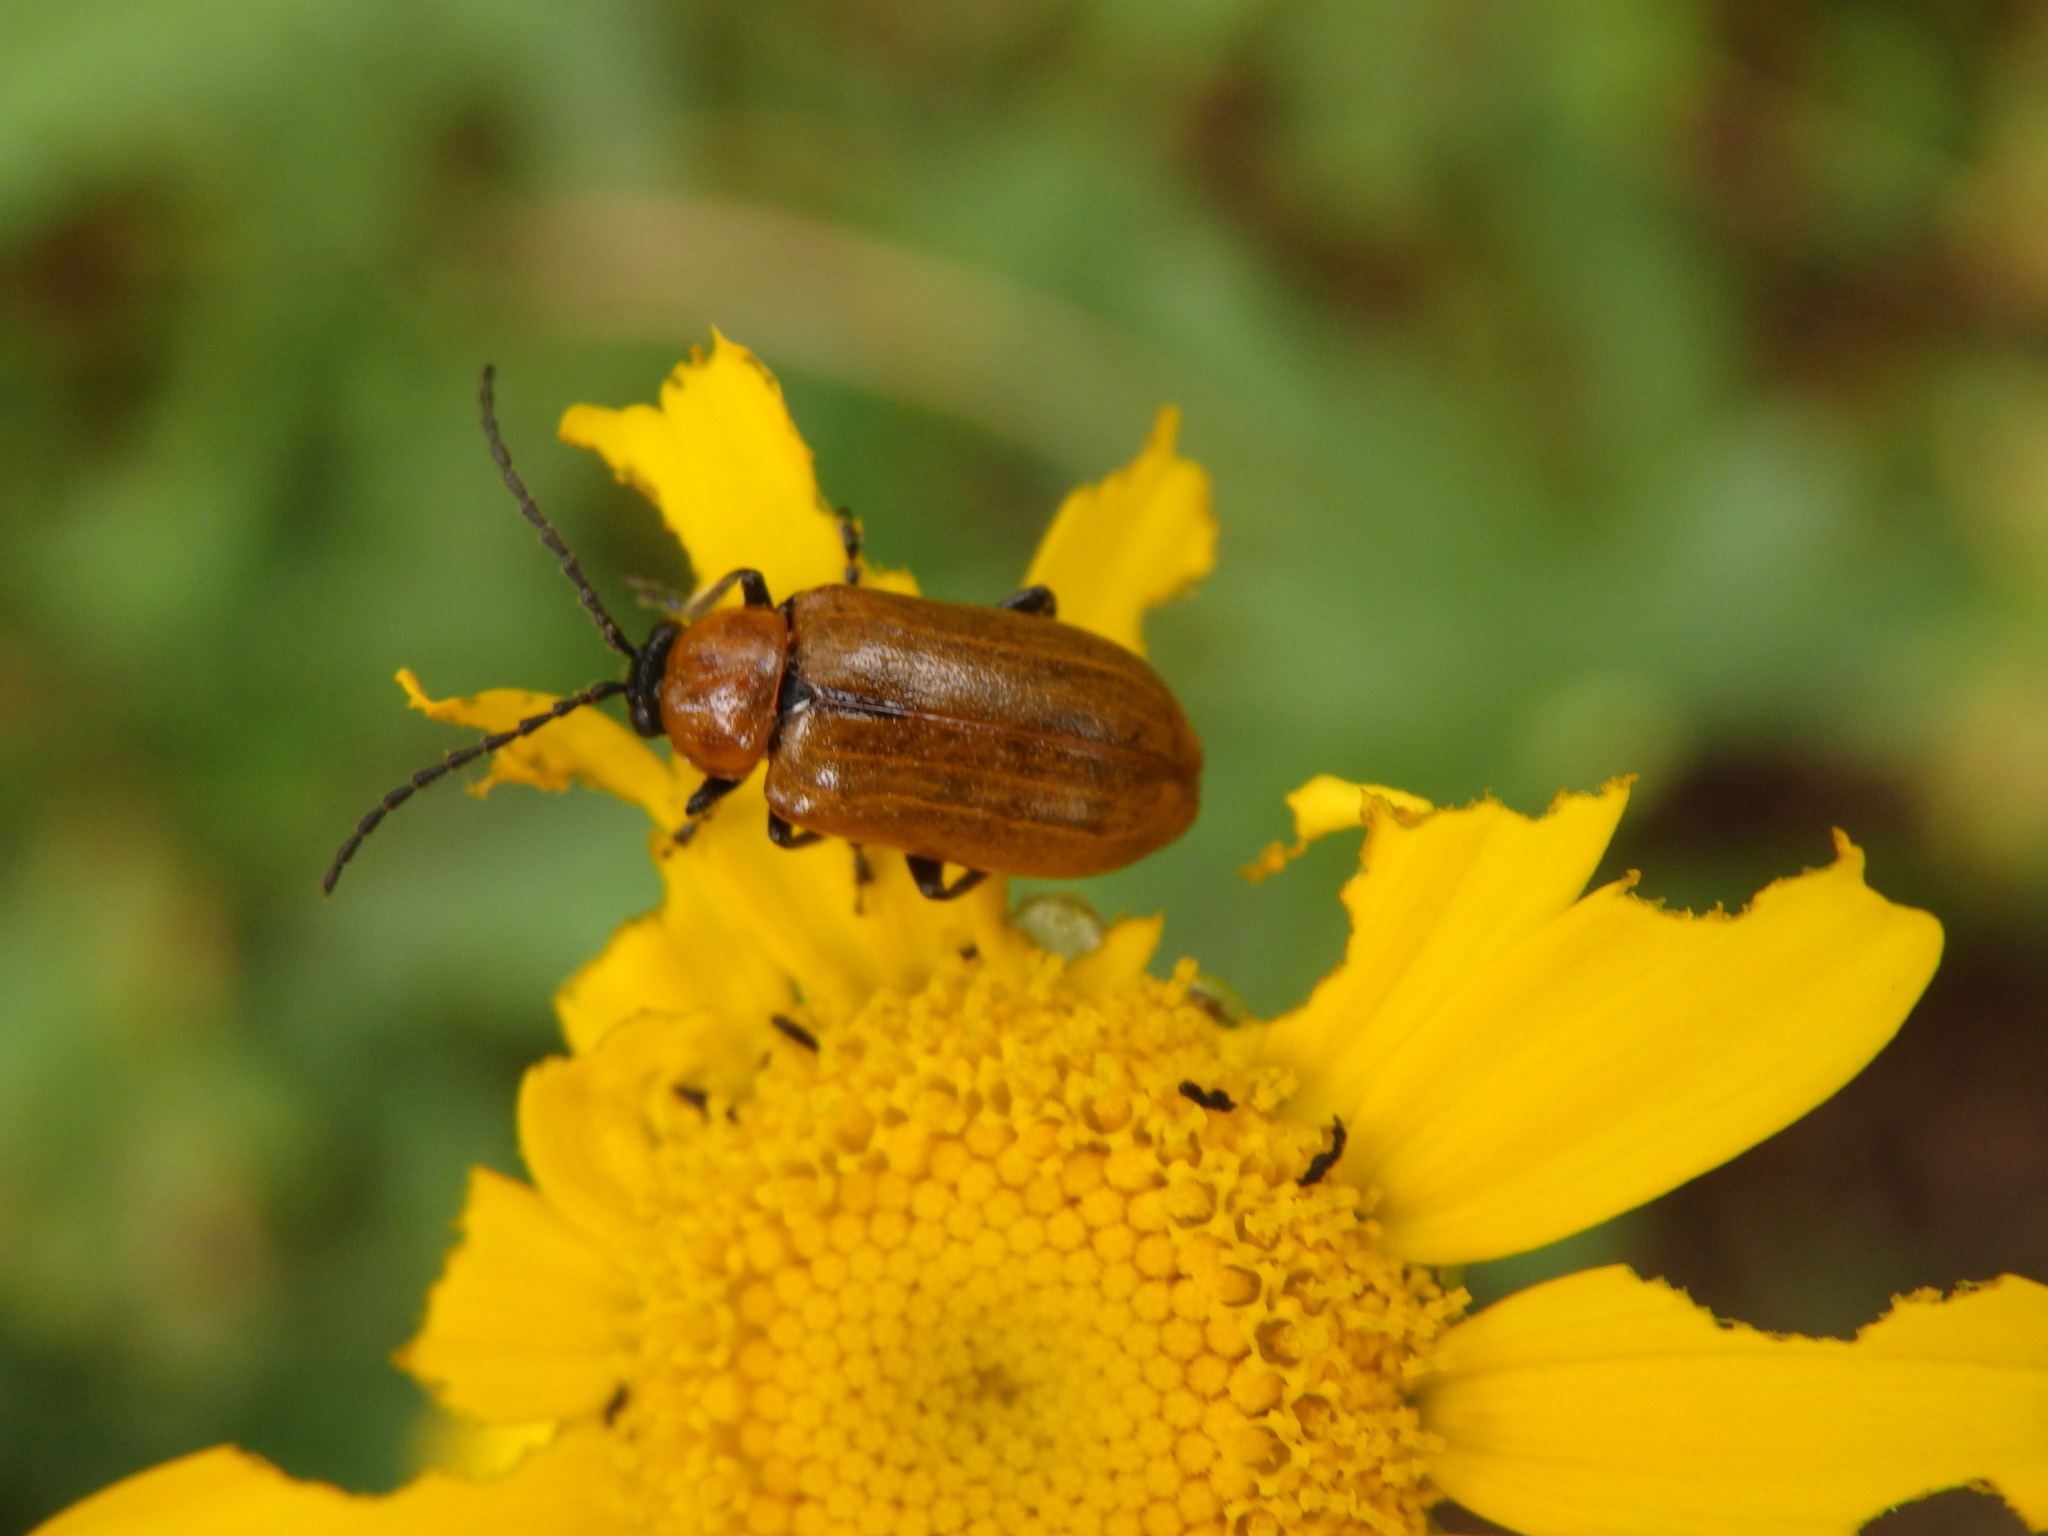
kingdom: Animalia
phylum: Arthropoda
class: Insecta
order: Coleoptera
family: Chrysomelidae
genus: Exosoma
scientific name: Exosoma lusitanicum
